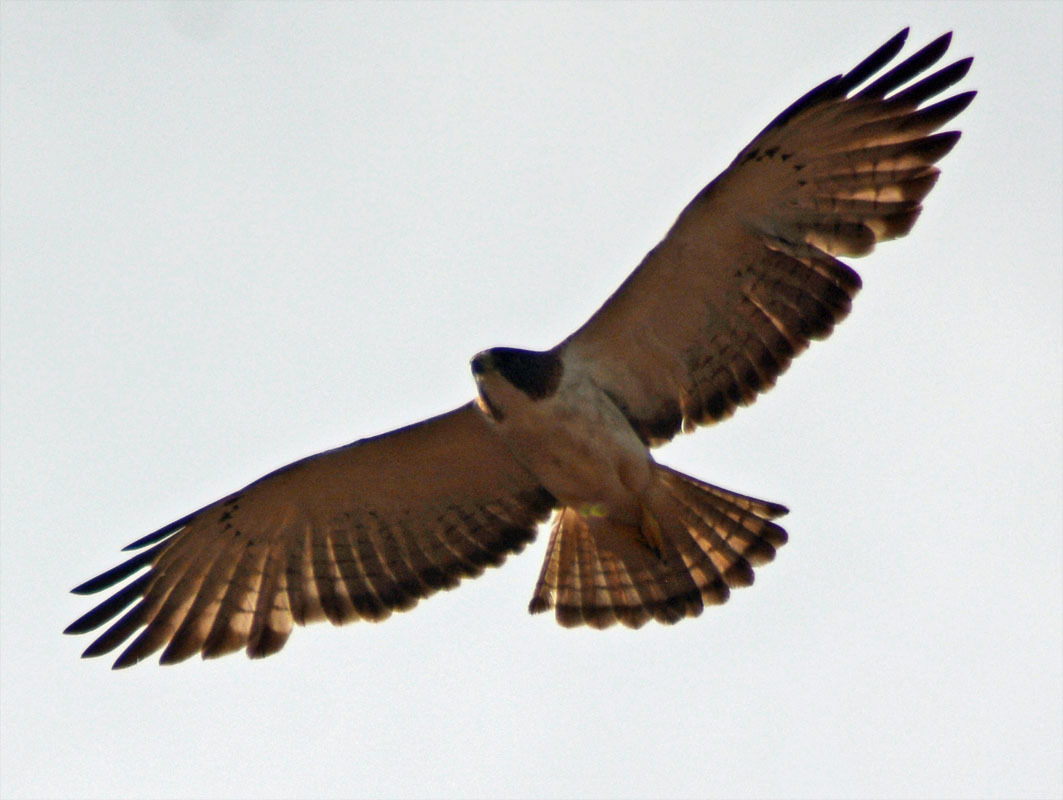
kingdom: Animalia
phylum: Chordata
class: Aves
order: Accipitriformes
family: Accipitridae
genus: Buteo
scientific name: Buteo brachyurus
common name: Short-tailed hawk
